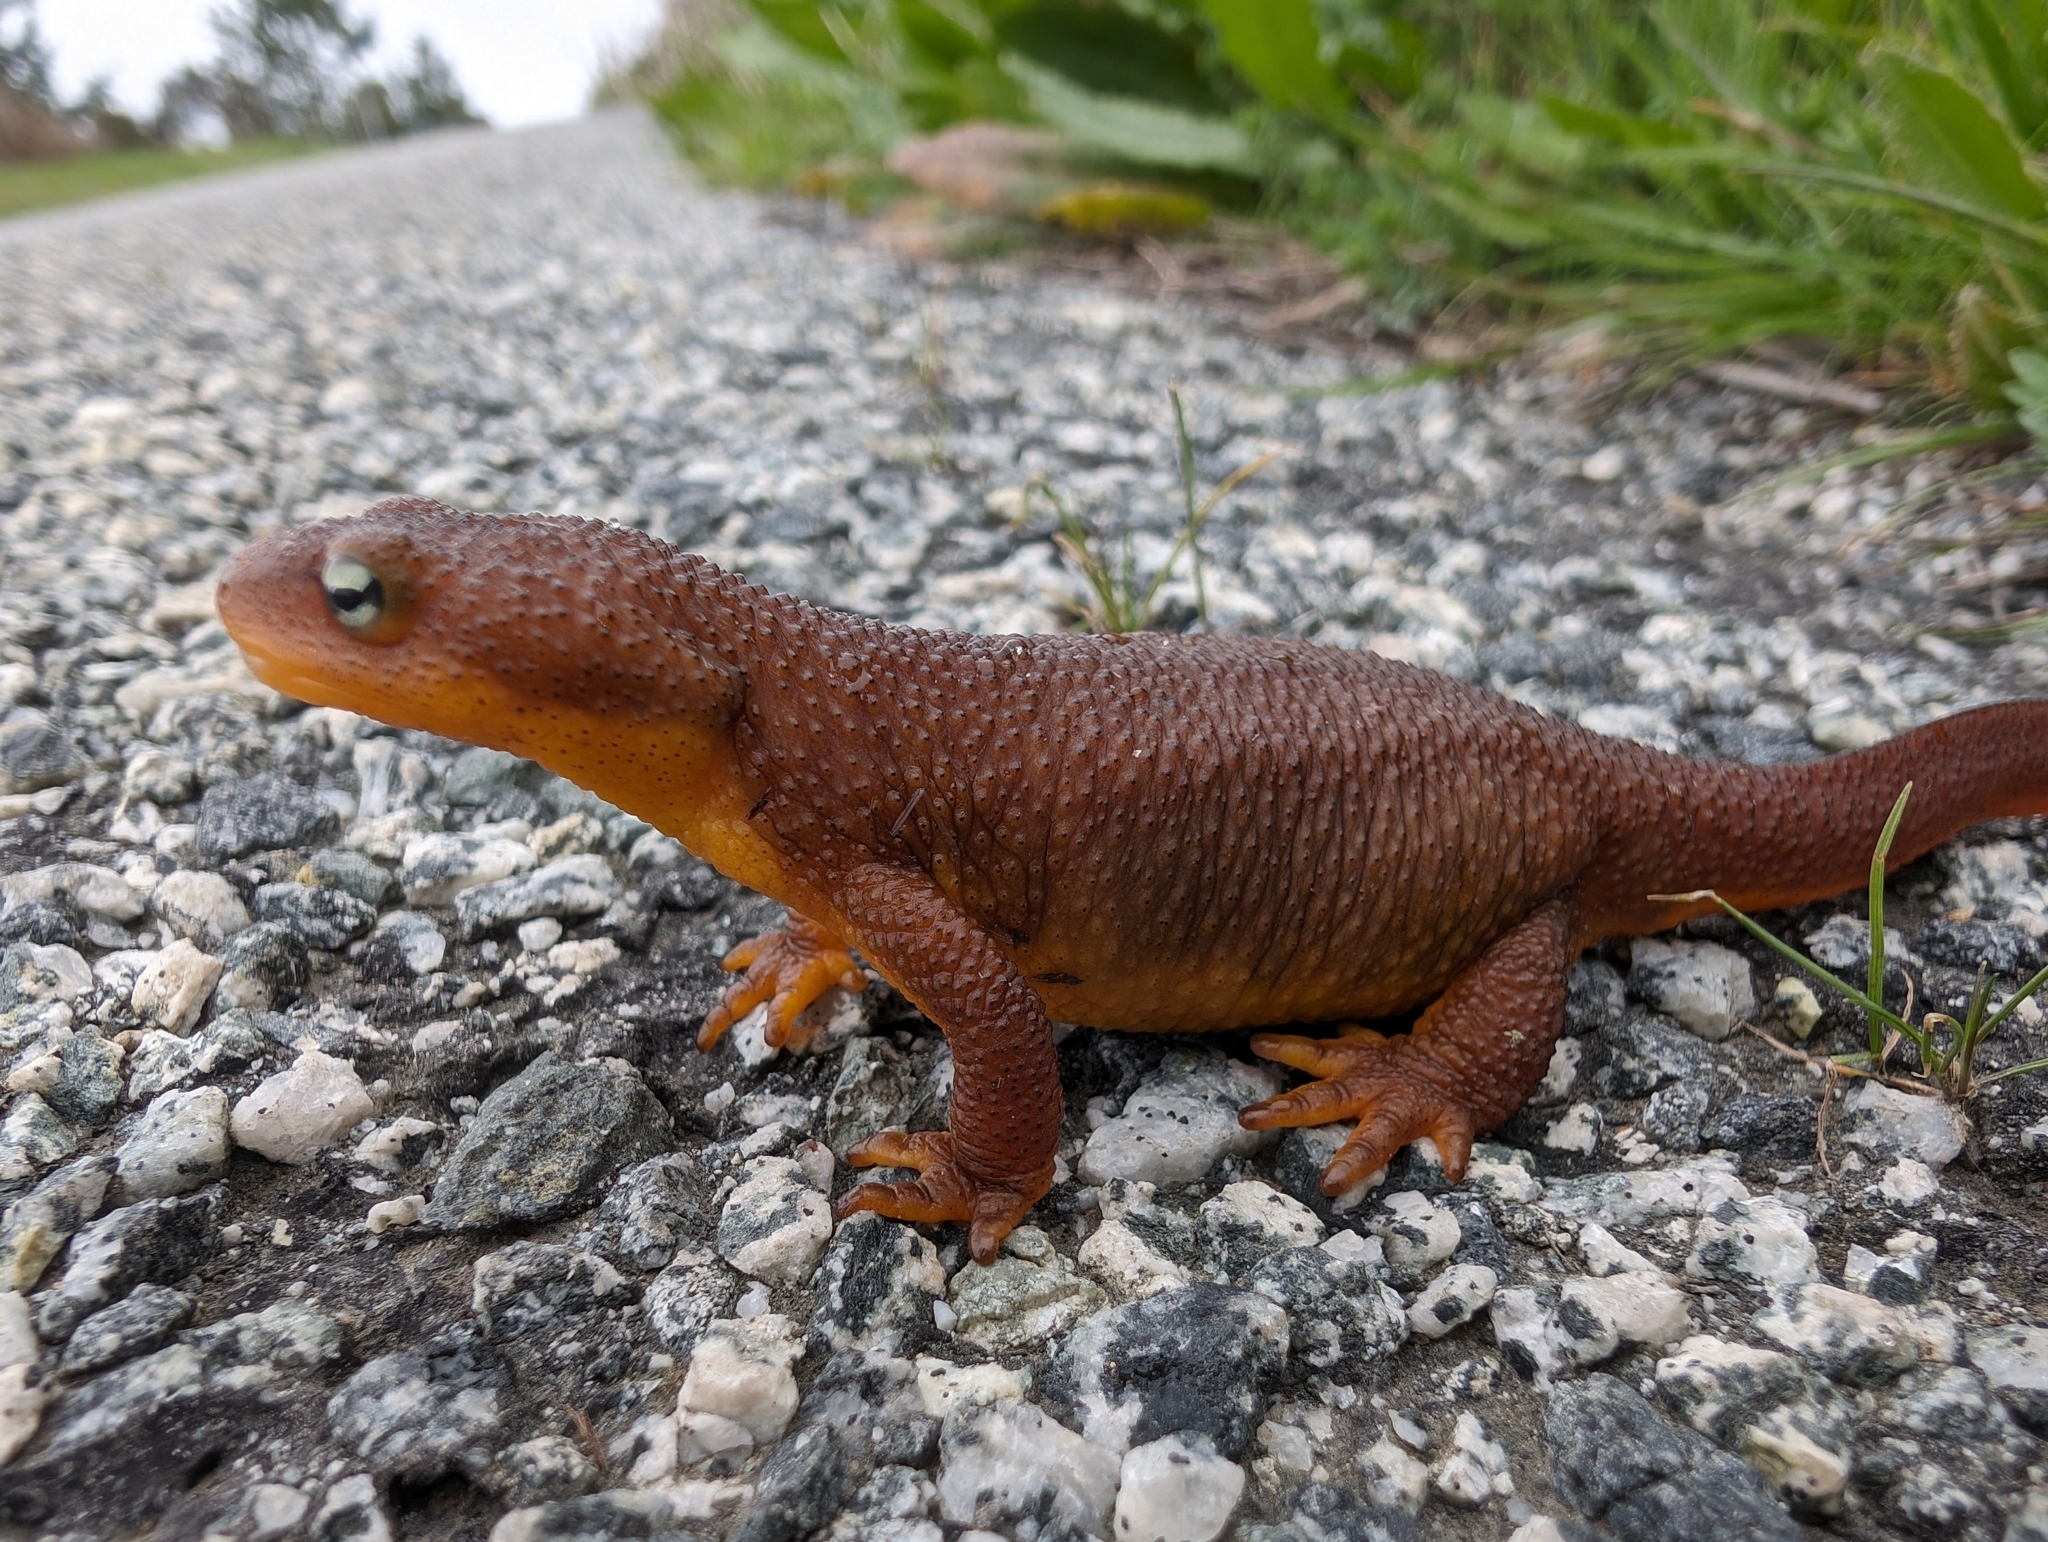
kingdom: Animalia
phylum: Chordata
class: Amphibia
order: Caudata
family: Salamandridae
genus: Taricha
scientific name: Taricha torosa
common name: California newt
